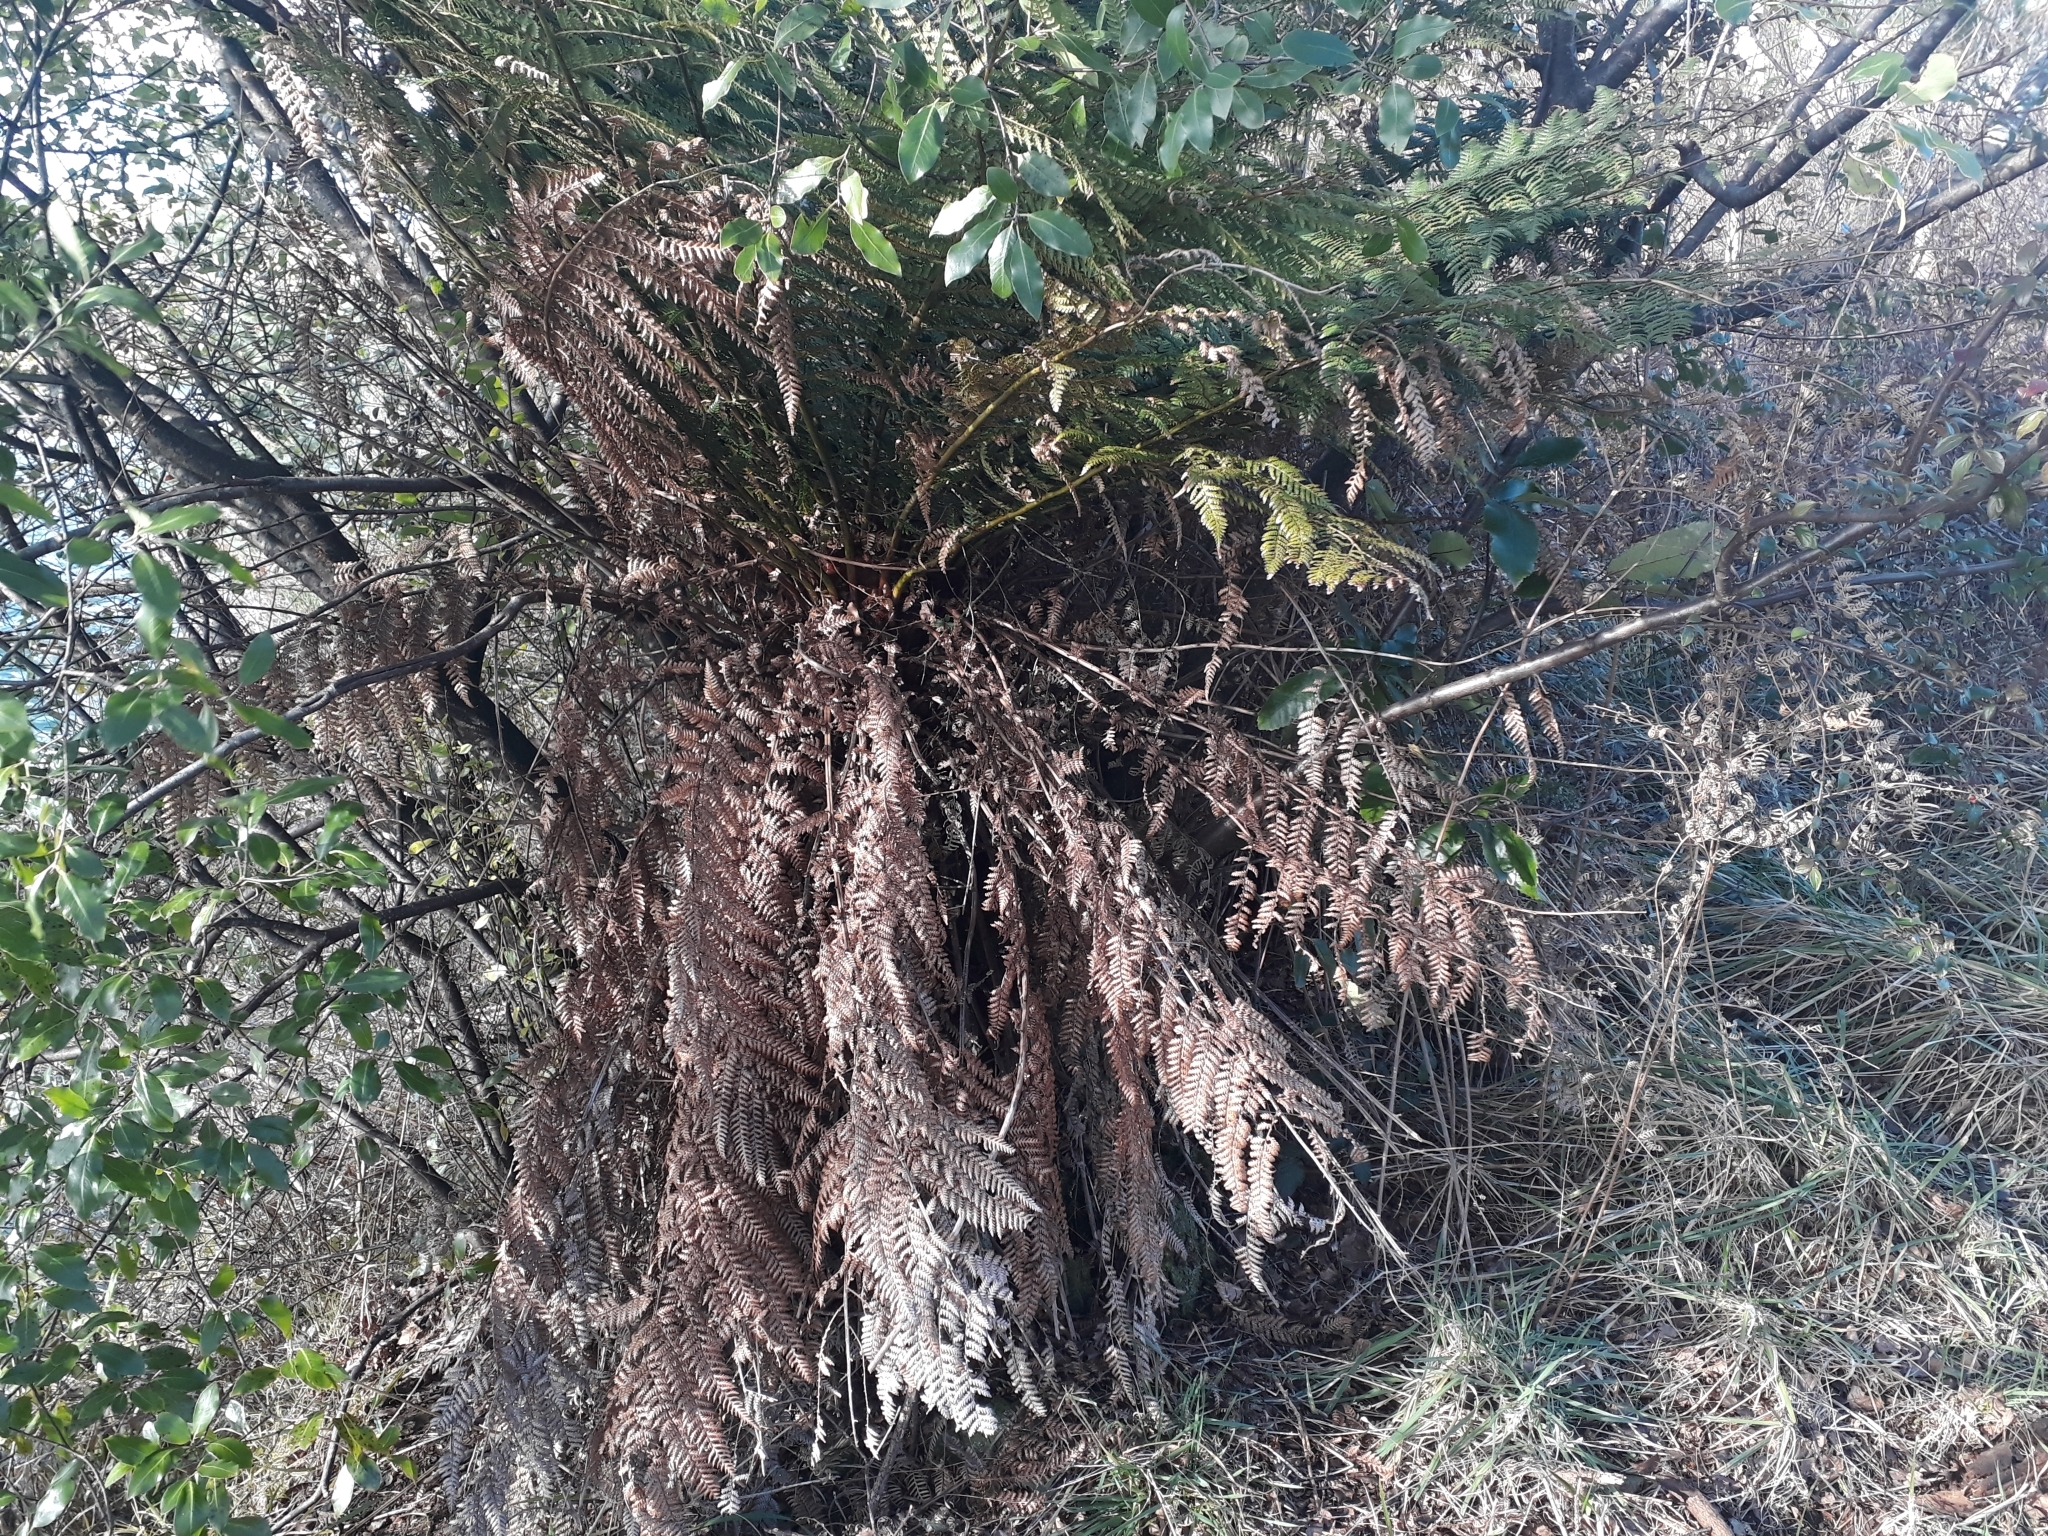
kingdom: Plantae
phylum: Tracheophyta
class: Polypodiopsida
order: Cyatheales
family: Dicksoniaceae
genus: Dicksonia
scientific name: Dicksonia fibrosa
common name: Golden tree fern
